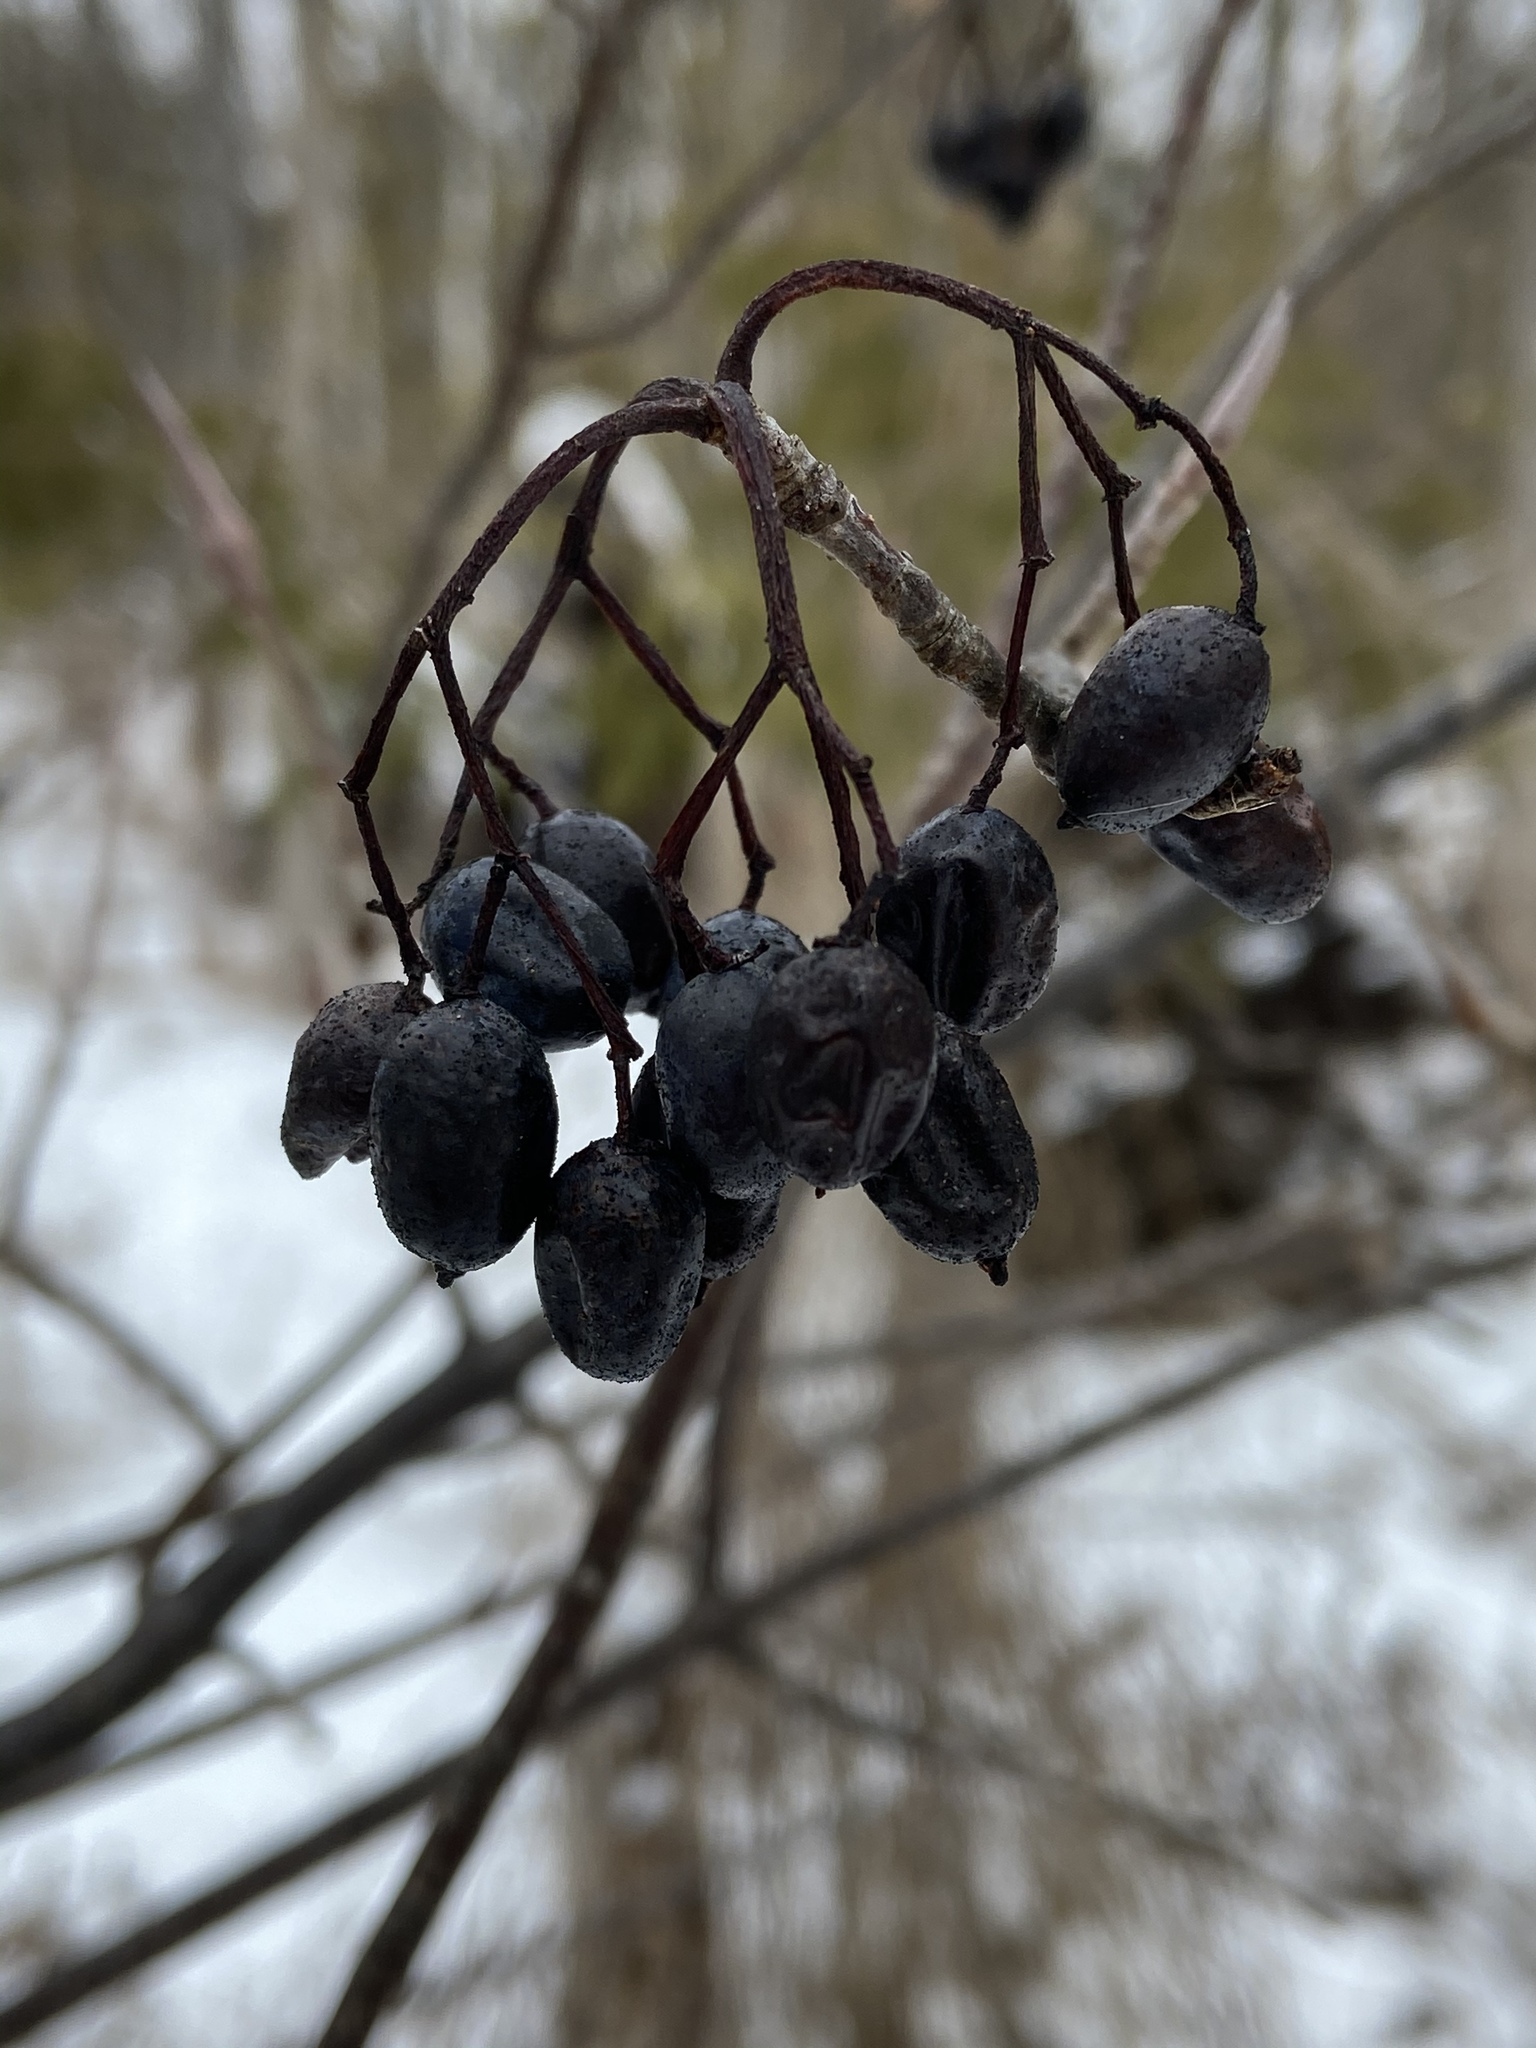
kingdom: Plantae
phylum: Tracheophyta
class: Magnoliopsida
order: Dipsacales
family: Viburnaceae
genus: Viburnum
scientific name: Viburnum lentago
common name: Black haw
